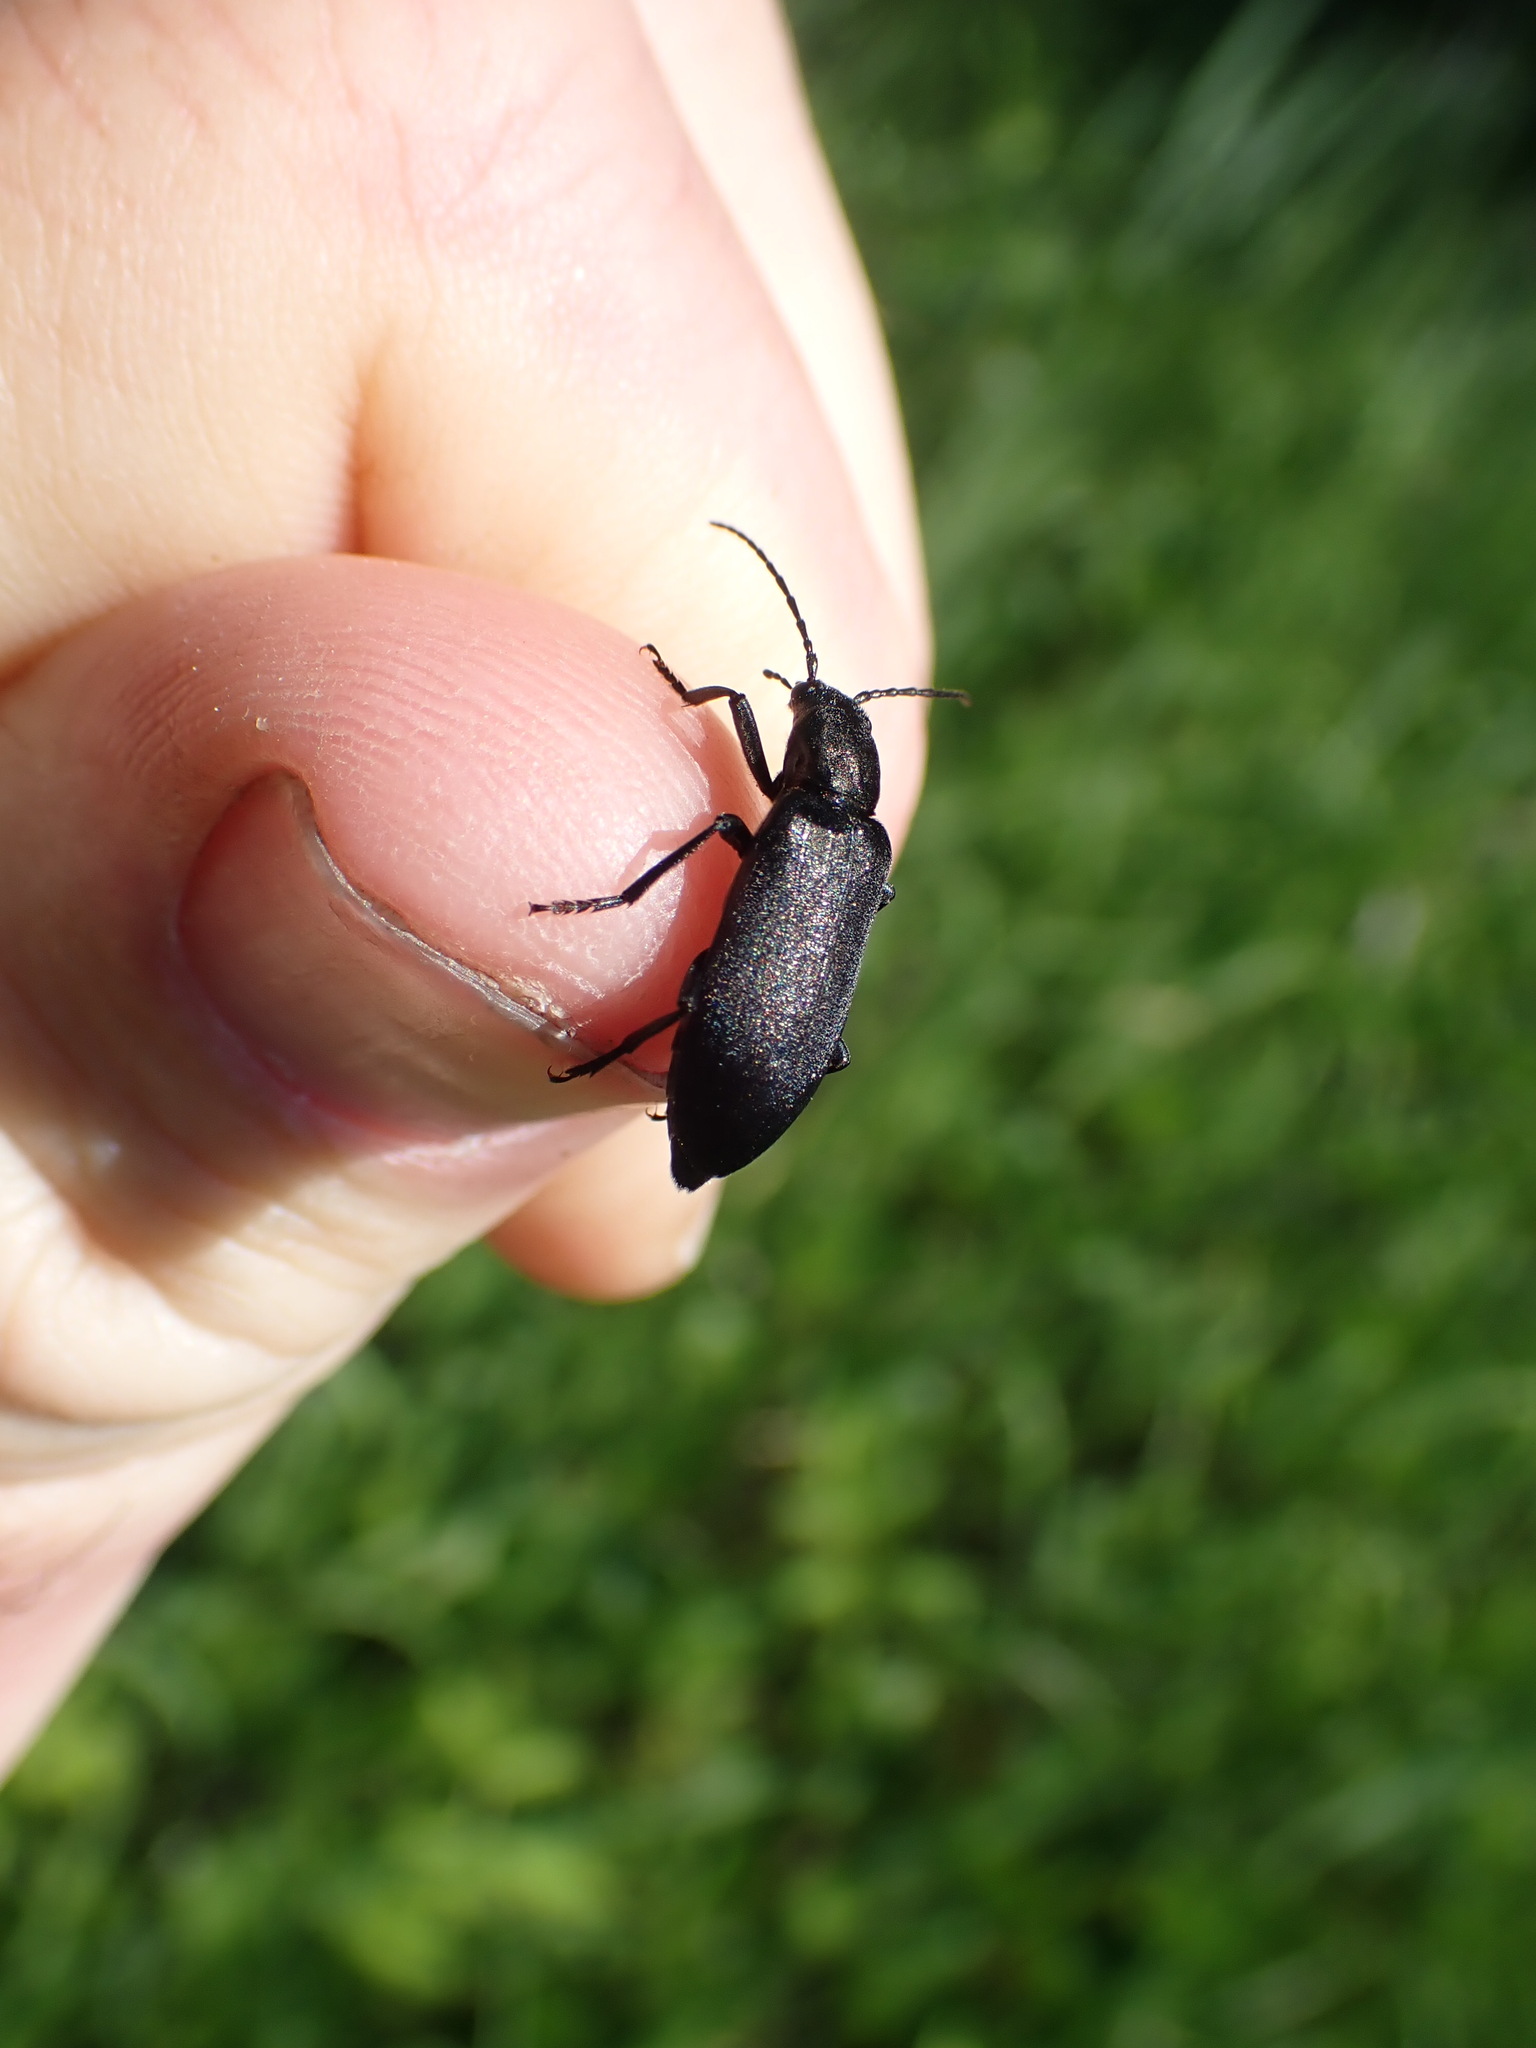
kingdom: Animalia
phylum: Arthropoda
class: Insecta
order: Coleoptera
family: Oedemeridae
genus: Ditylus
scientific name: Ditylus quadricollis
